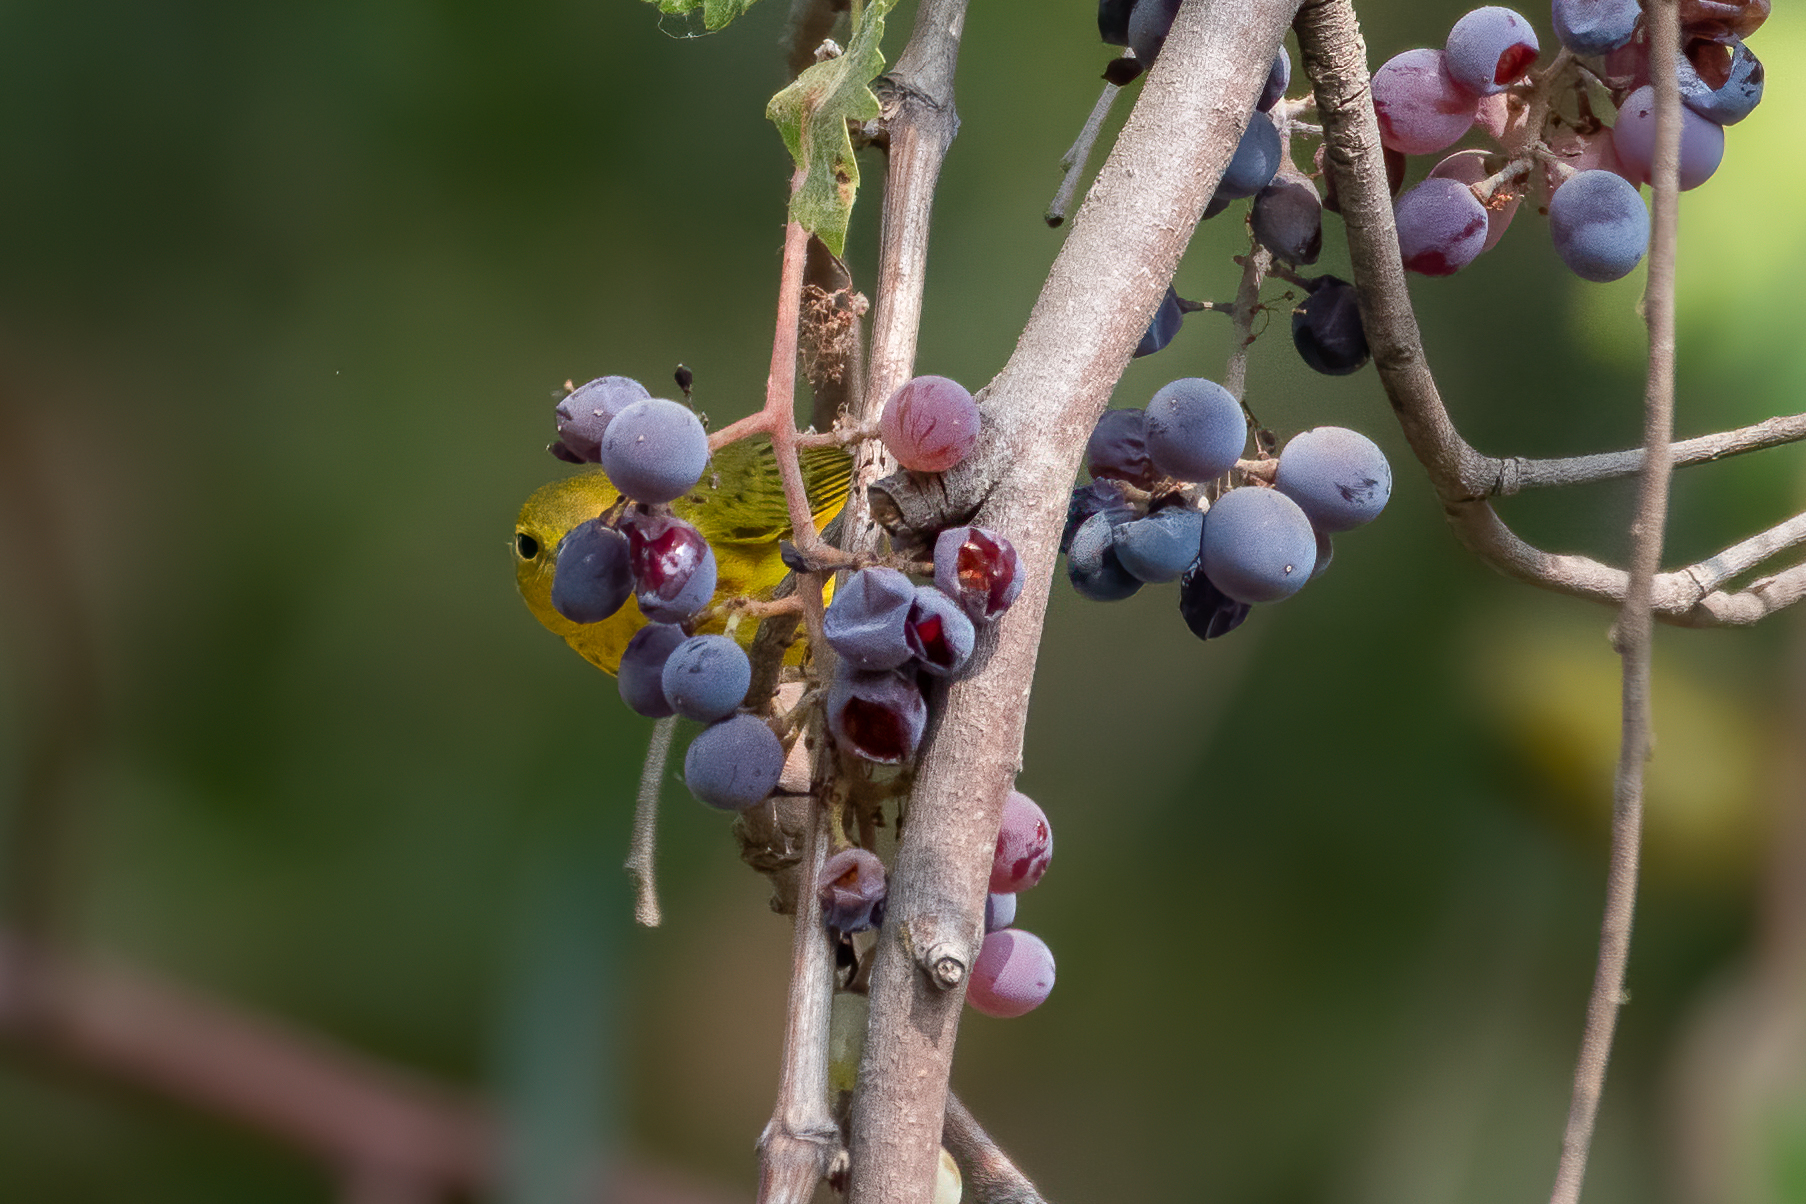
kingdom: Animalia
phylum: Chordata
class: Aves
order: Passeriformes
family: Parulidae
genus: Setophaga
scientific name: Setophaga petechia
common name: Yellow warbler
